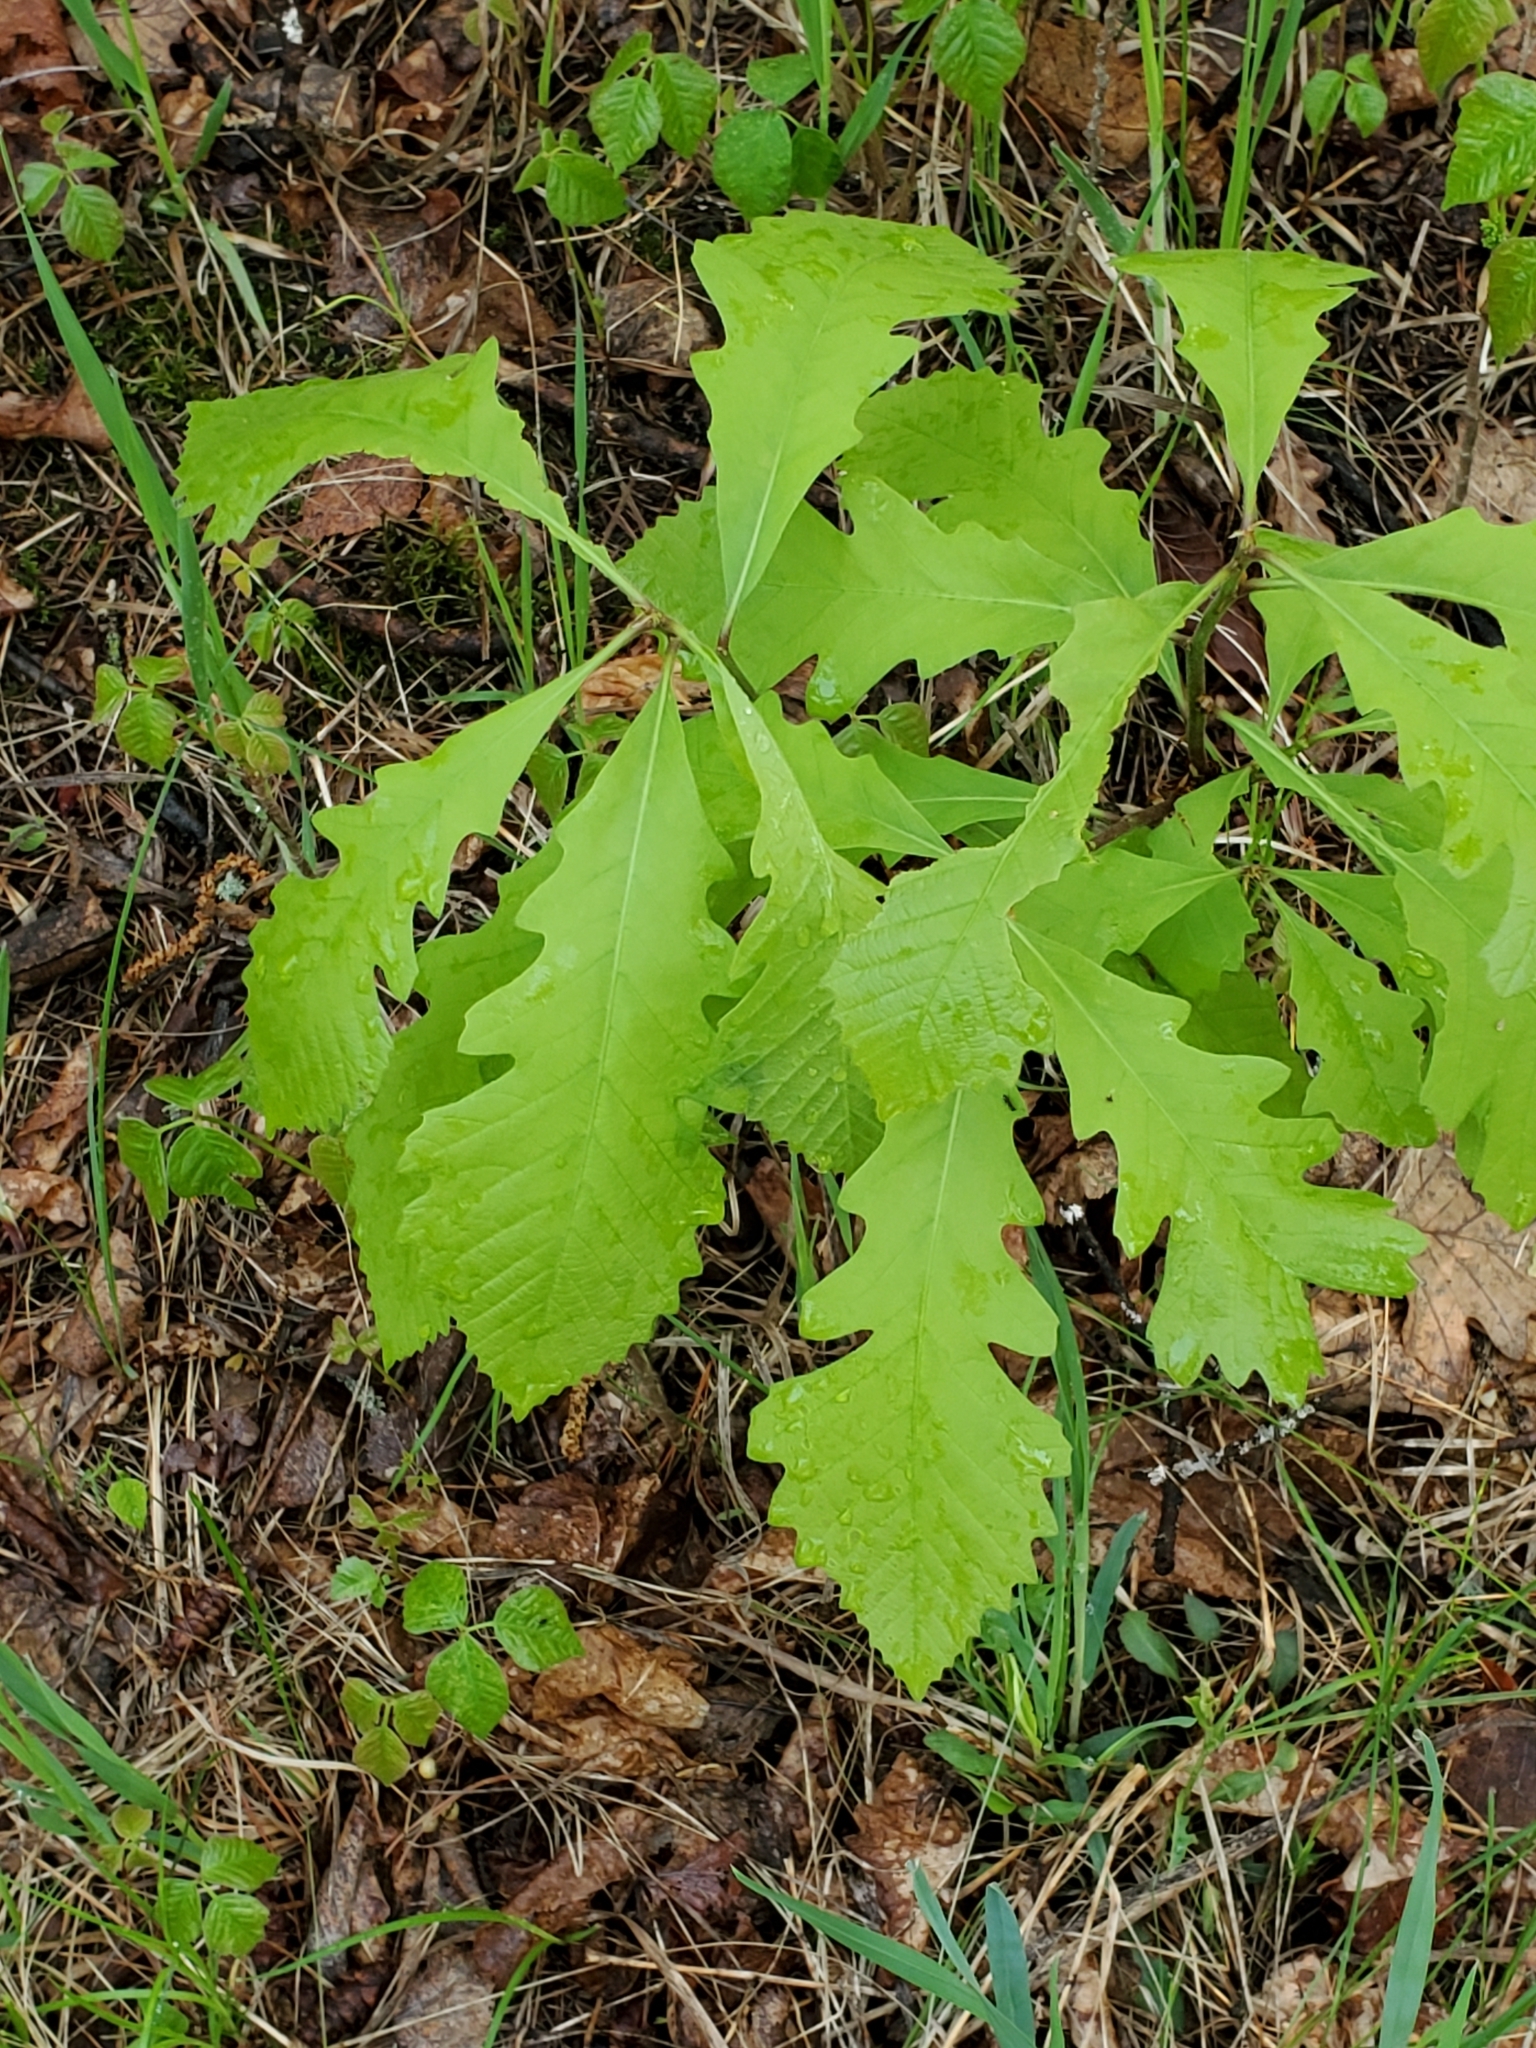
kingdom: Plantae
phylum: Tracheophyta
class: Magnoliopsida
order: Fagales
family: Fagaceae
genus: Quercus
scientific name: Quercus macrocarpa
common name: Bur oak
